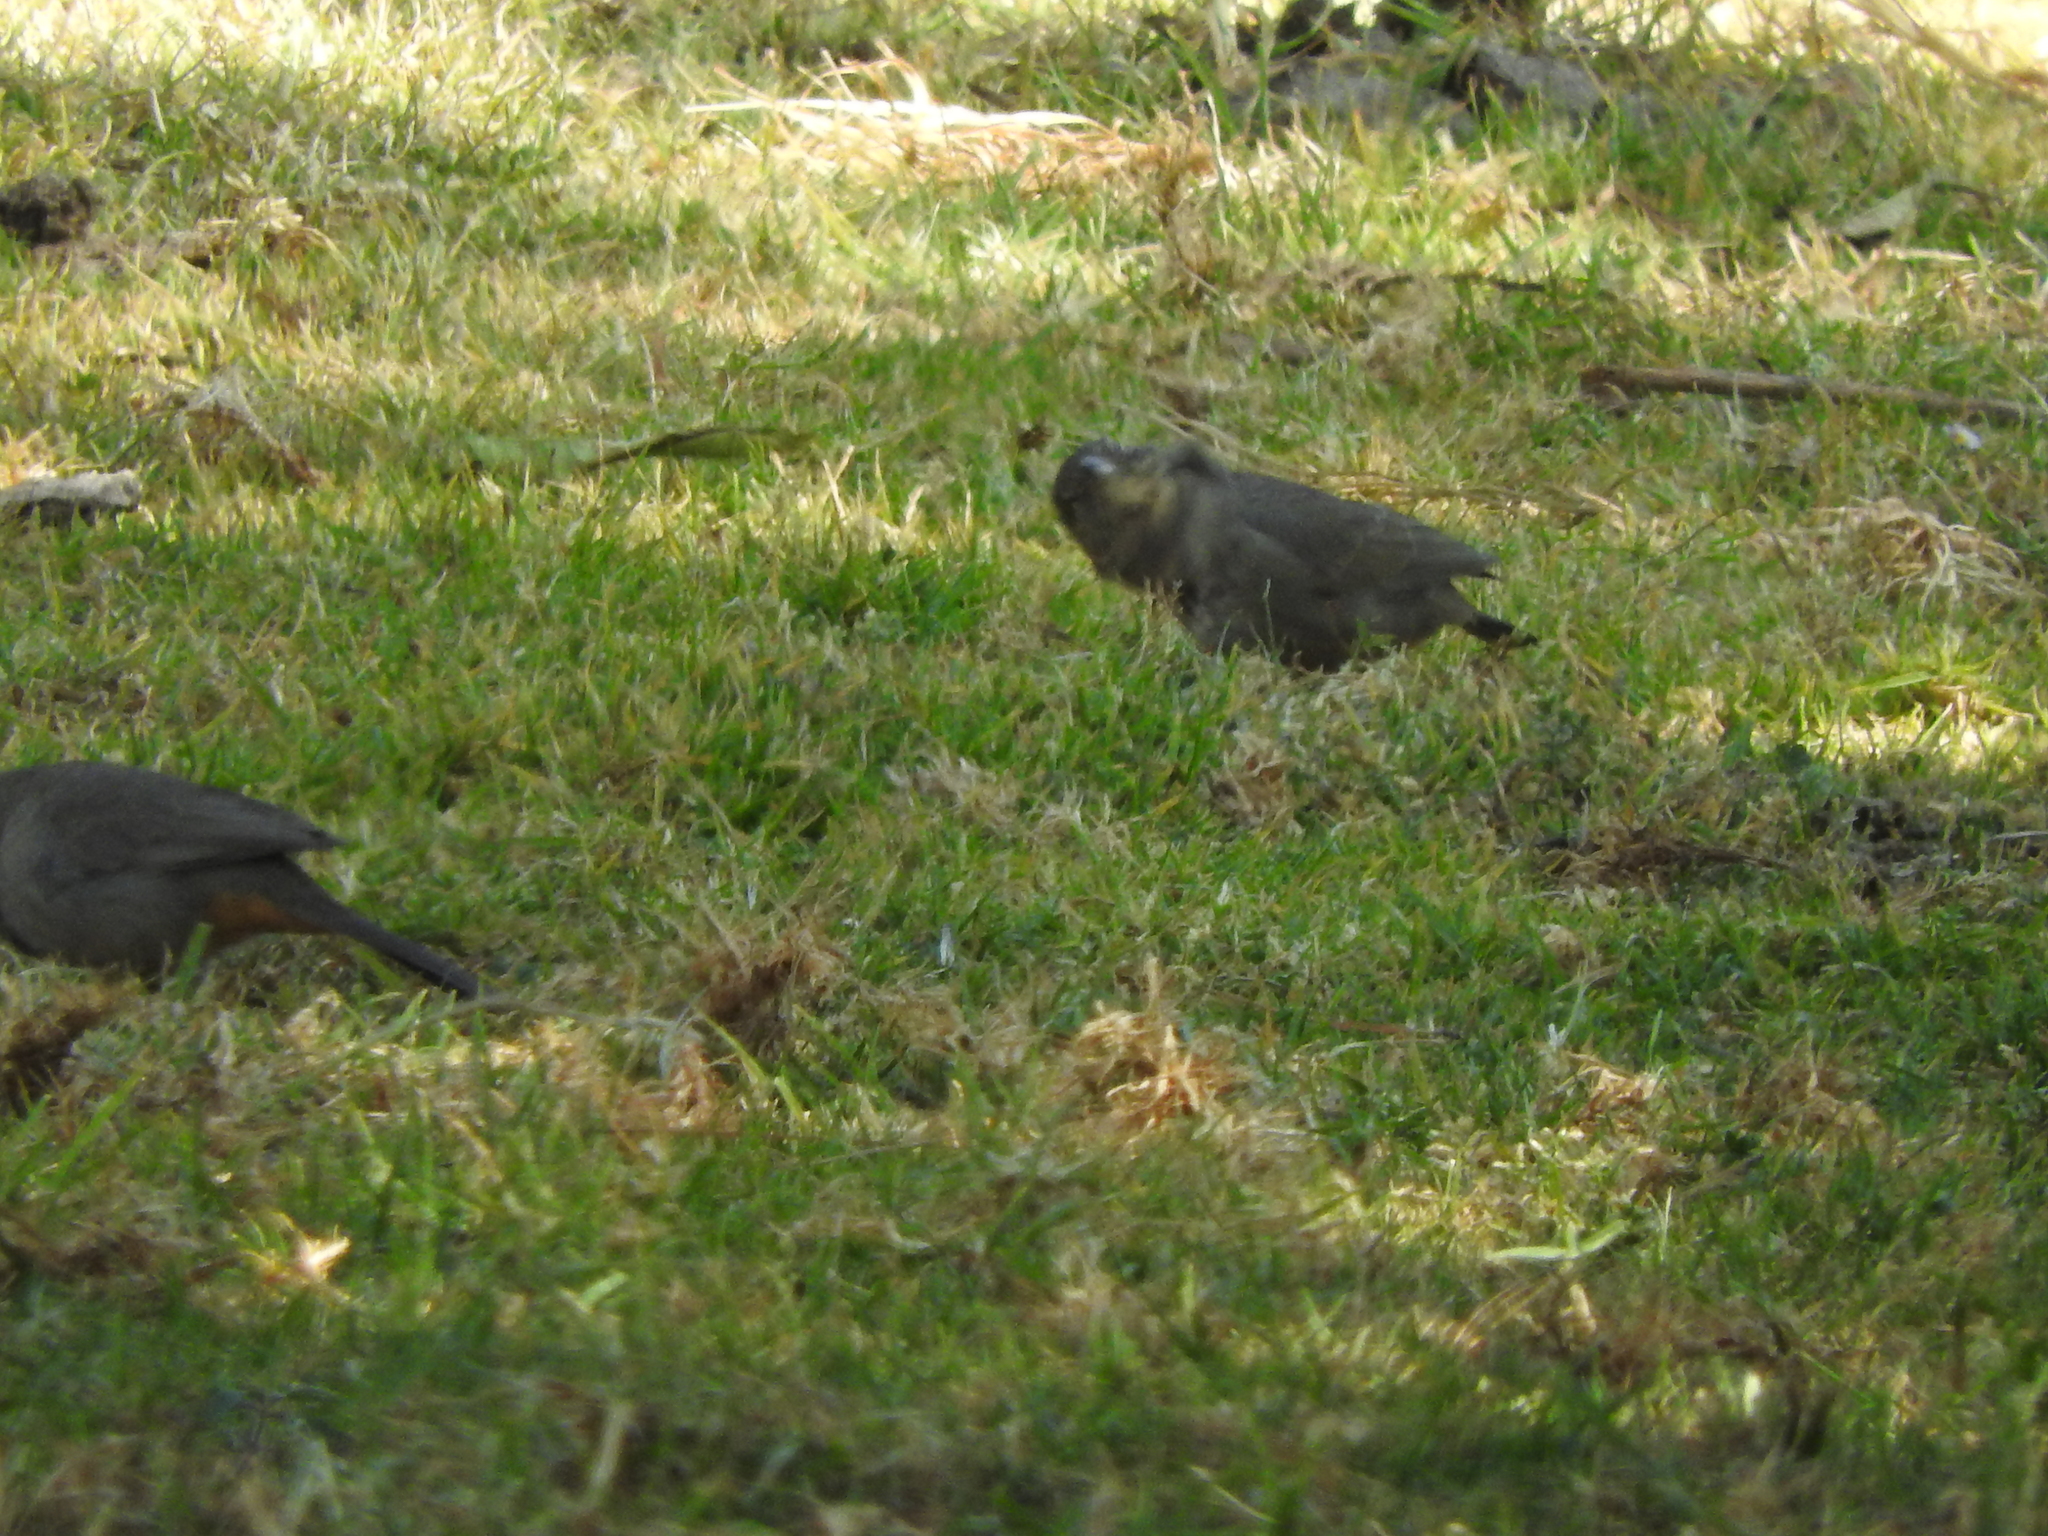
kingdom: Animalia
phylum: Chordata
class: Aves
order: Passeriformes
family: Passerellidae
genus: Melozone
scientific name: Melozone fusca
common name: Canyon towhee
